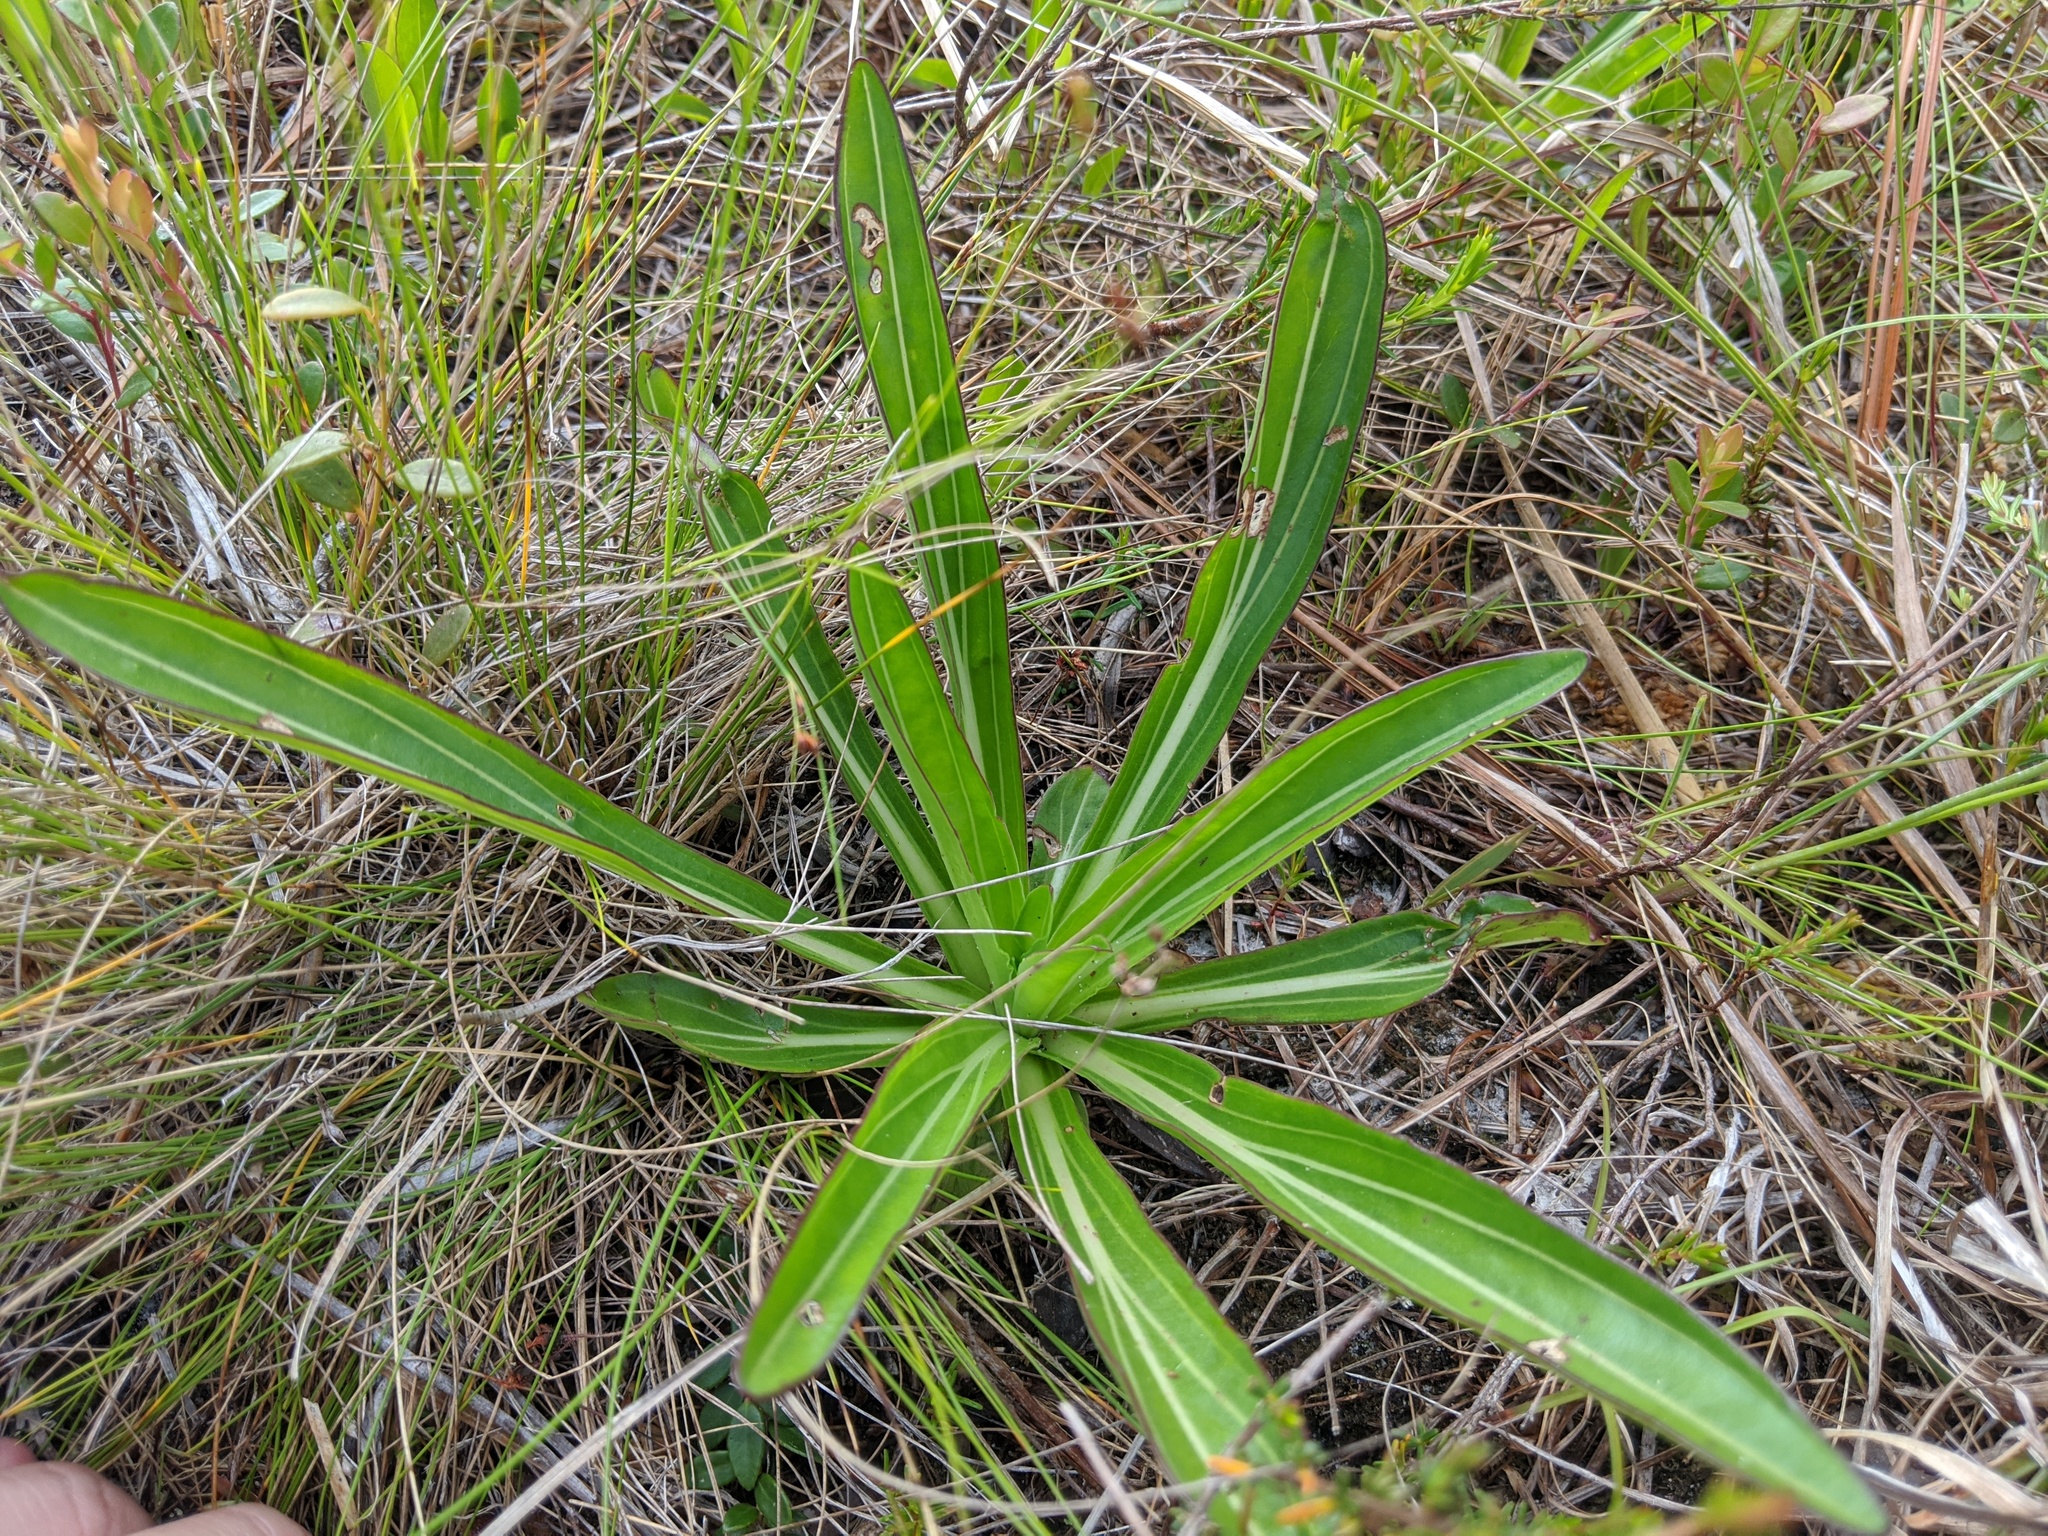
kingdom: Plantae
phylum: Tracheophyta
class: Magnoliopsida
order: Asterales
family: Asteraceae
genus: Carphephorus
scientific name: Carphephorus odoratissimus
